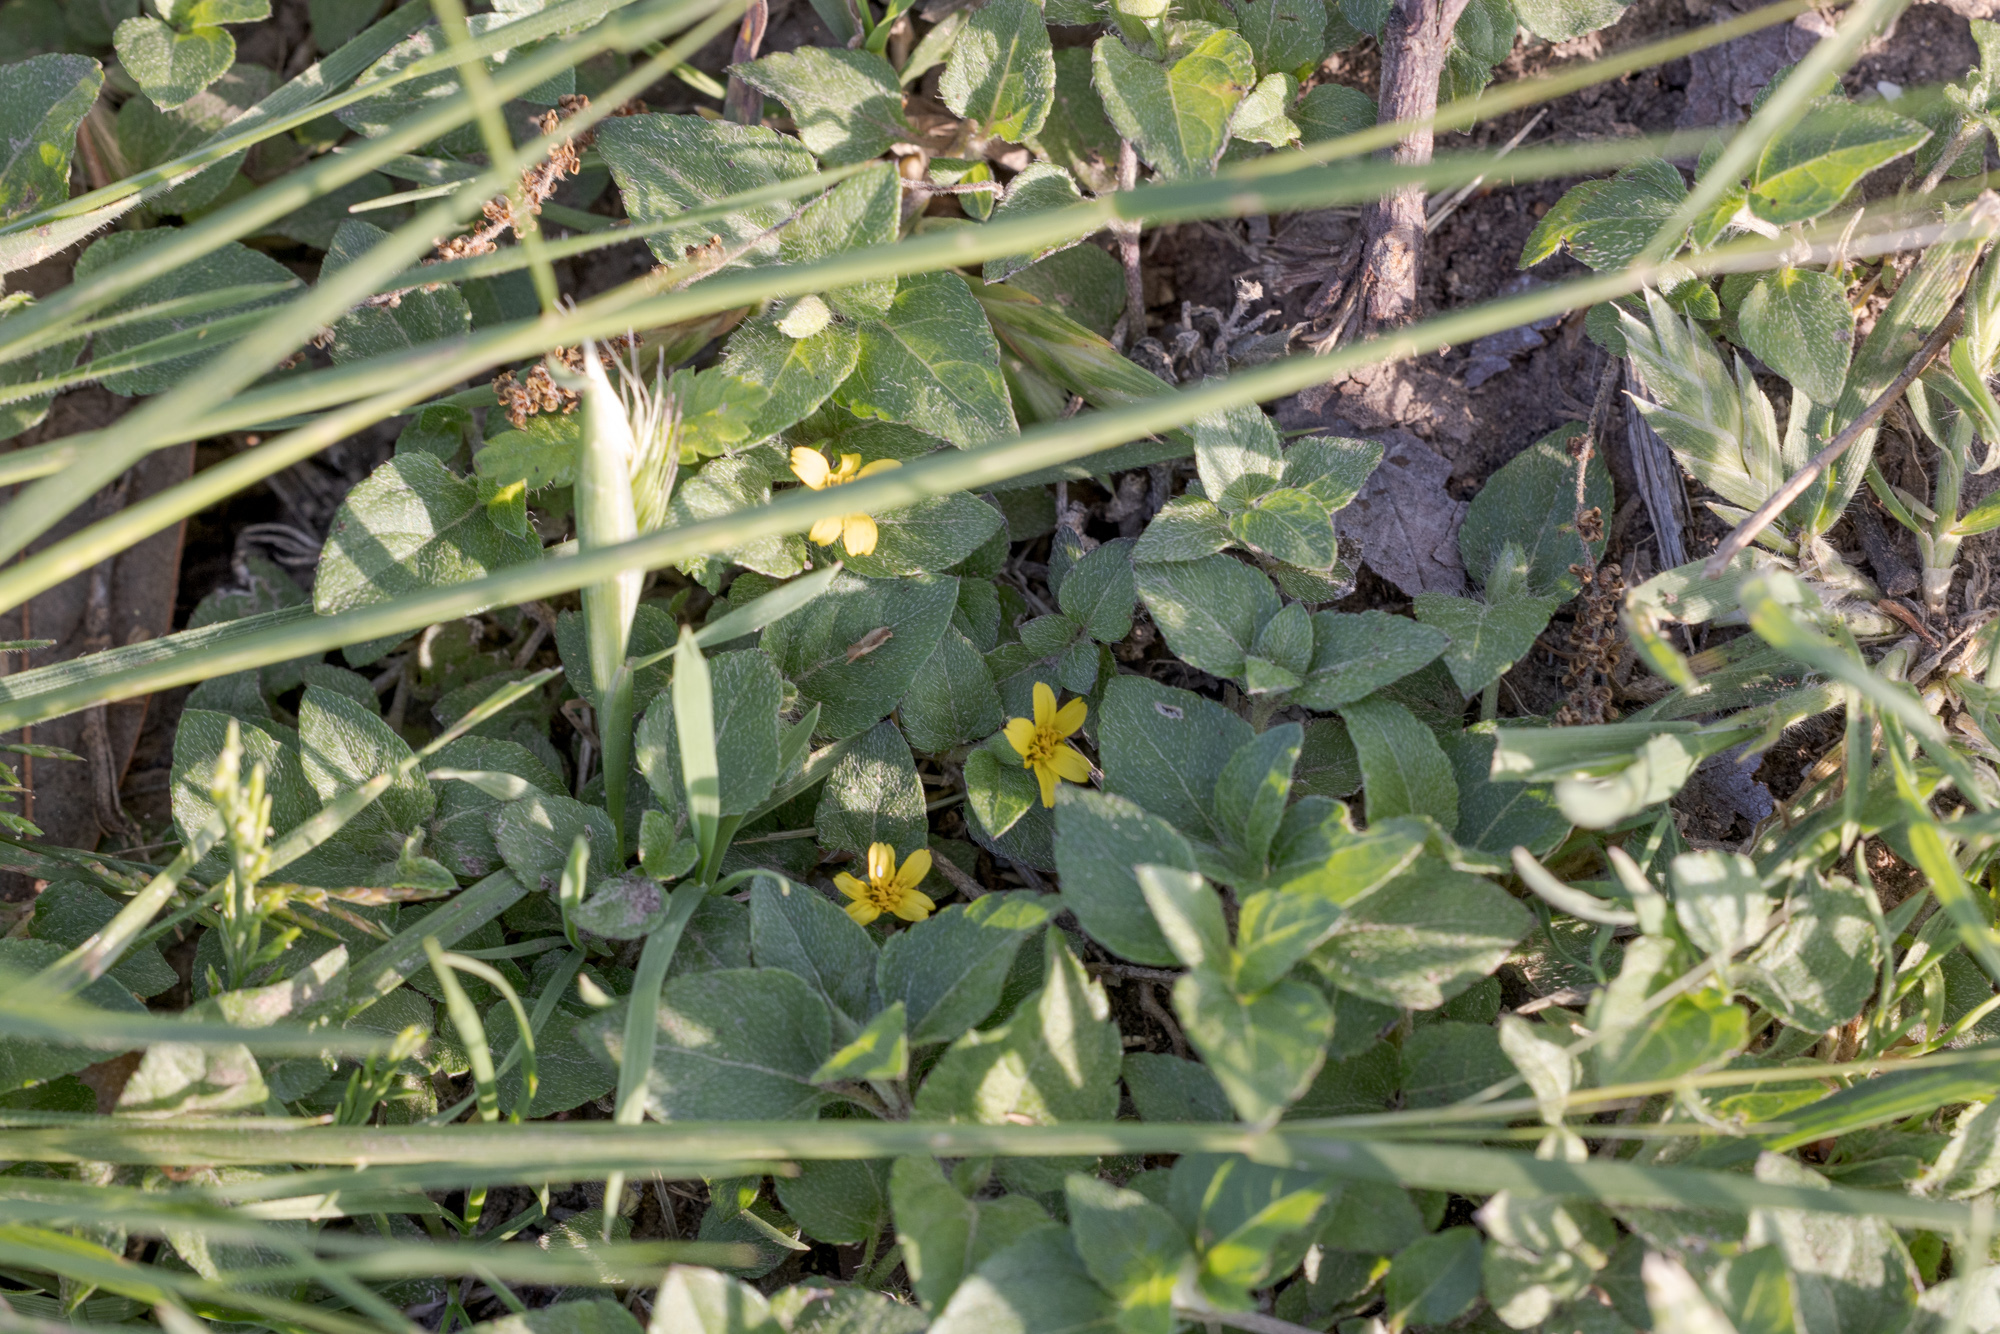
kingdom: Plantae
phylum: Tracheophyta
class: Magnoliopsida
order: Asterales
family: Asteraceae
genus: Calyptocarpus
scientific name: Calyptocarpus vialis
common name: Straggler daisy
